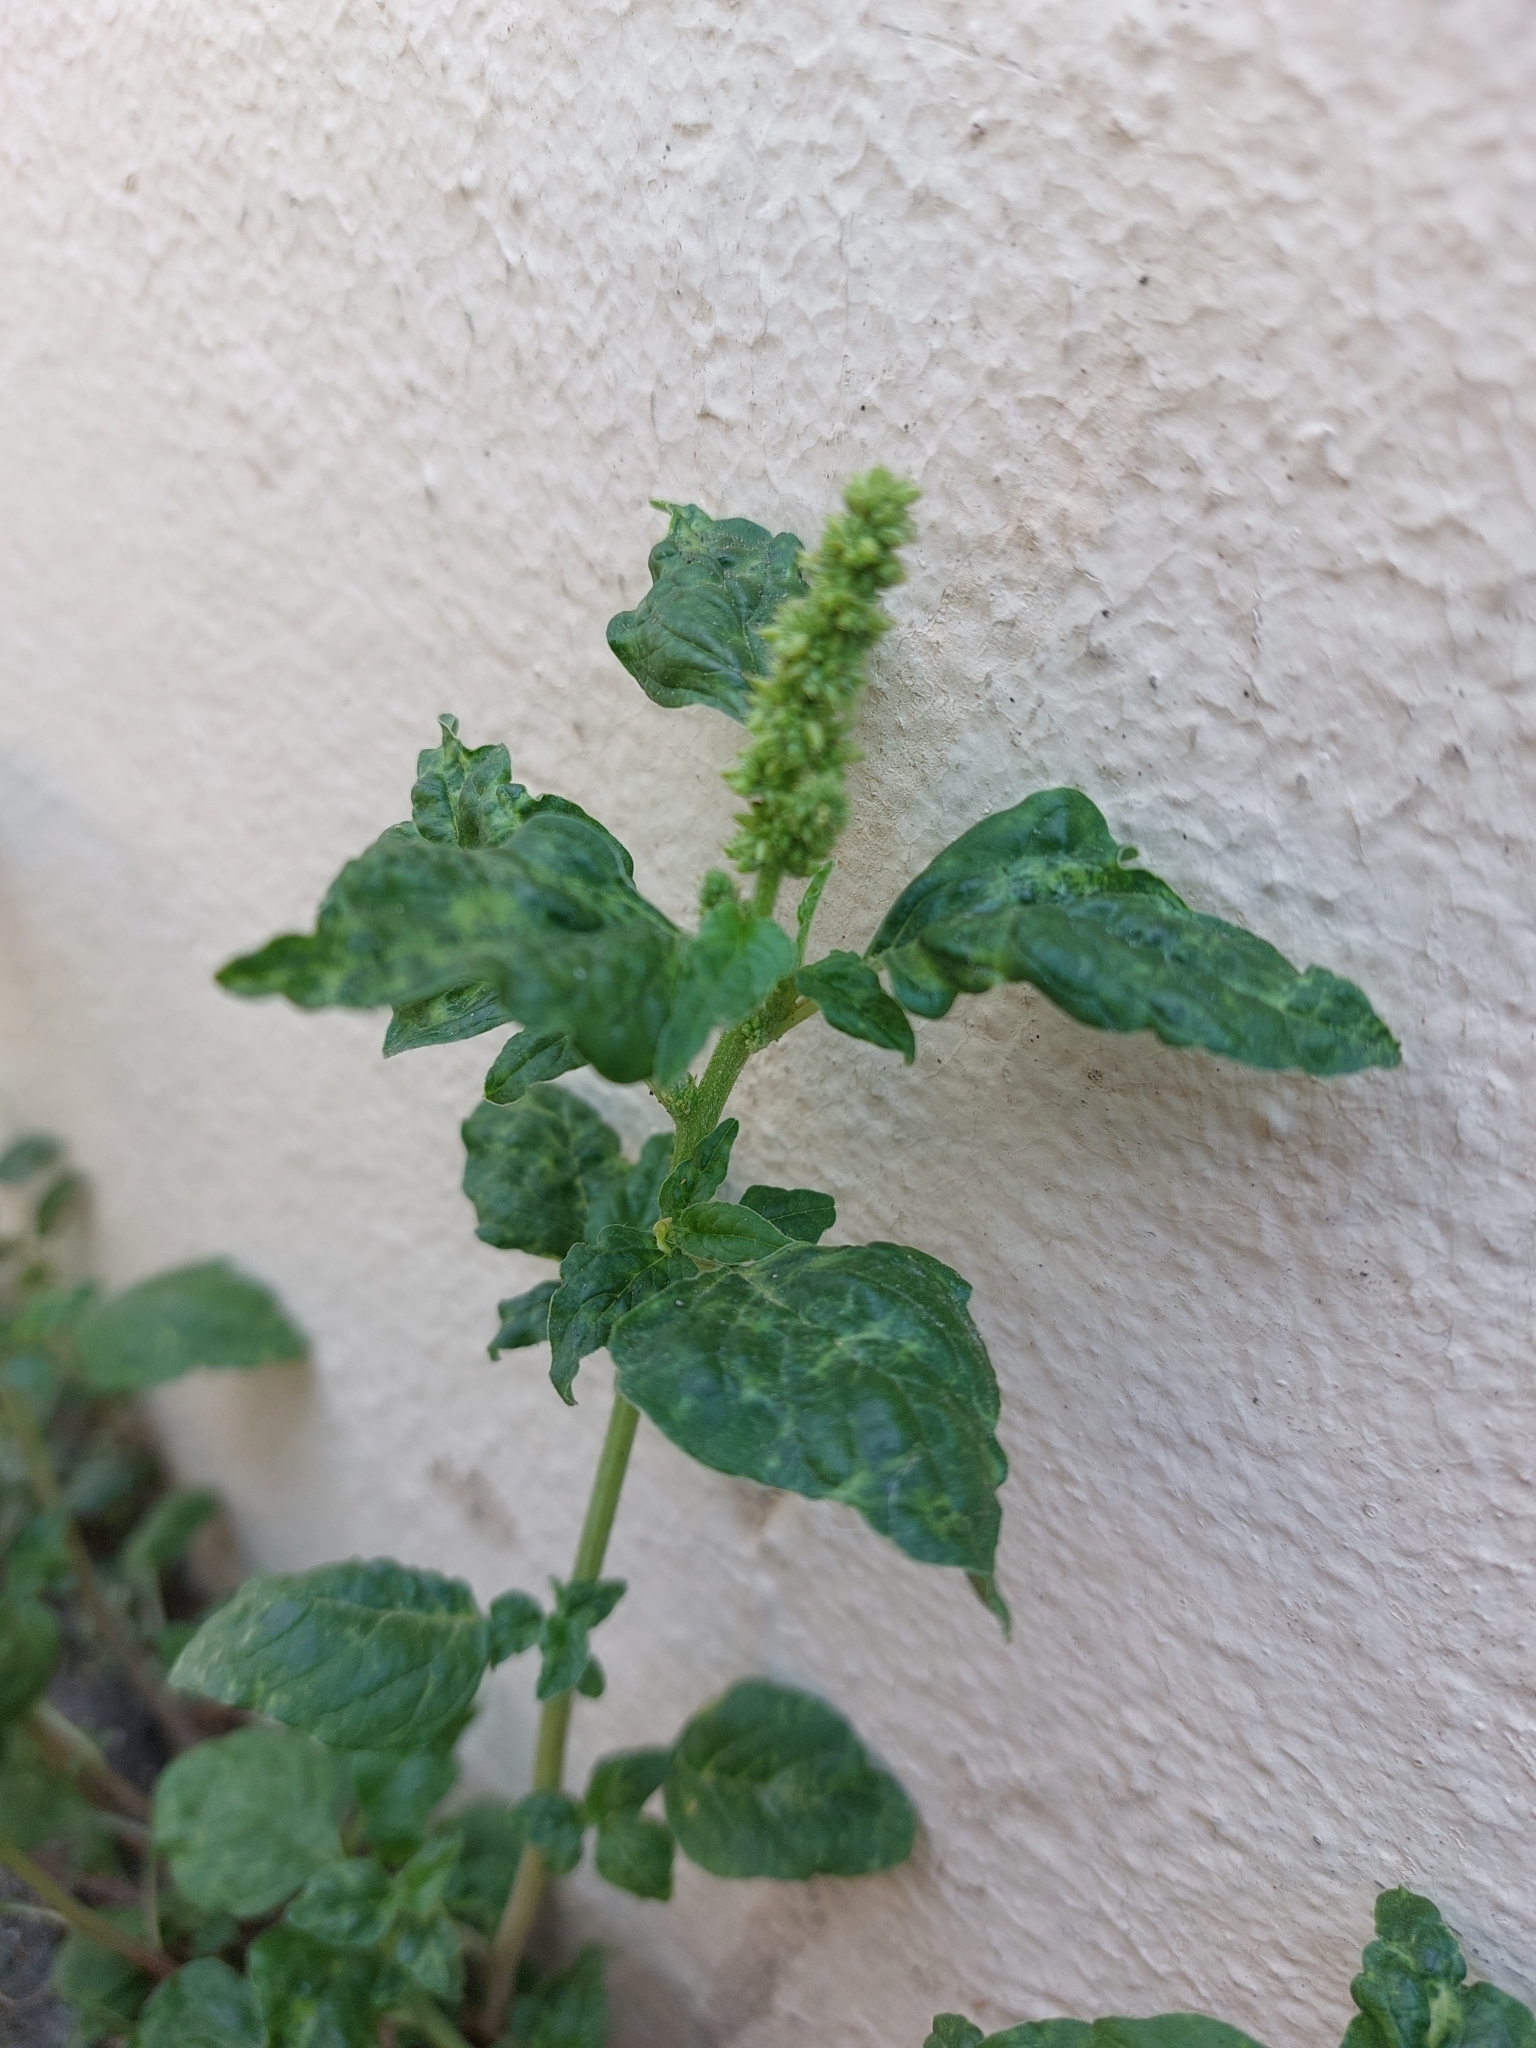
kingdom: Plantae
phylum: Tracheophyta
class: Magnoliopsida
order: Caryophyllales
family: Amaranthaceae
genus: Amaranthus
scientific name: Amaranthus deflexus
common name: Perennial pigweed
